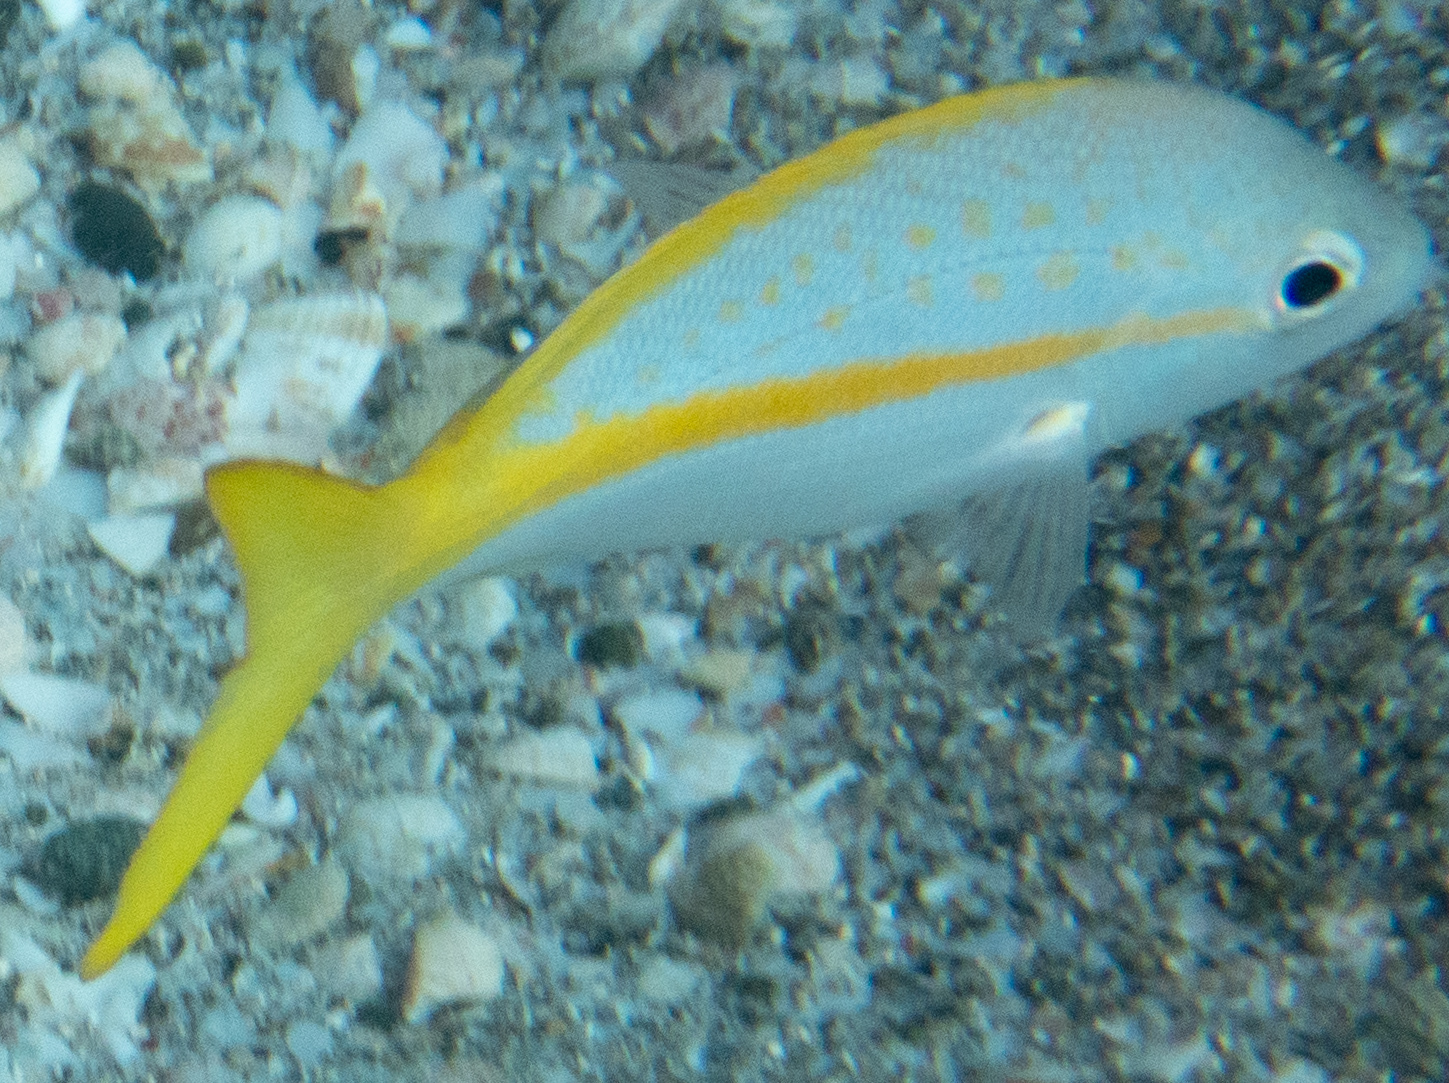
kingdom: Animalia
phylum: Chordata
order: Perciformes
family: Lutjanidae
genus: Ocyurus
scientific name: Ocyurus chrysurus
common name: Yellowtail snapper
